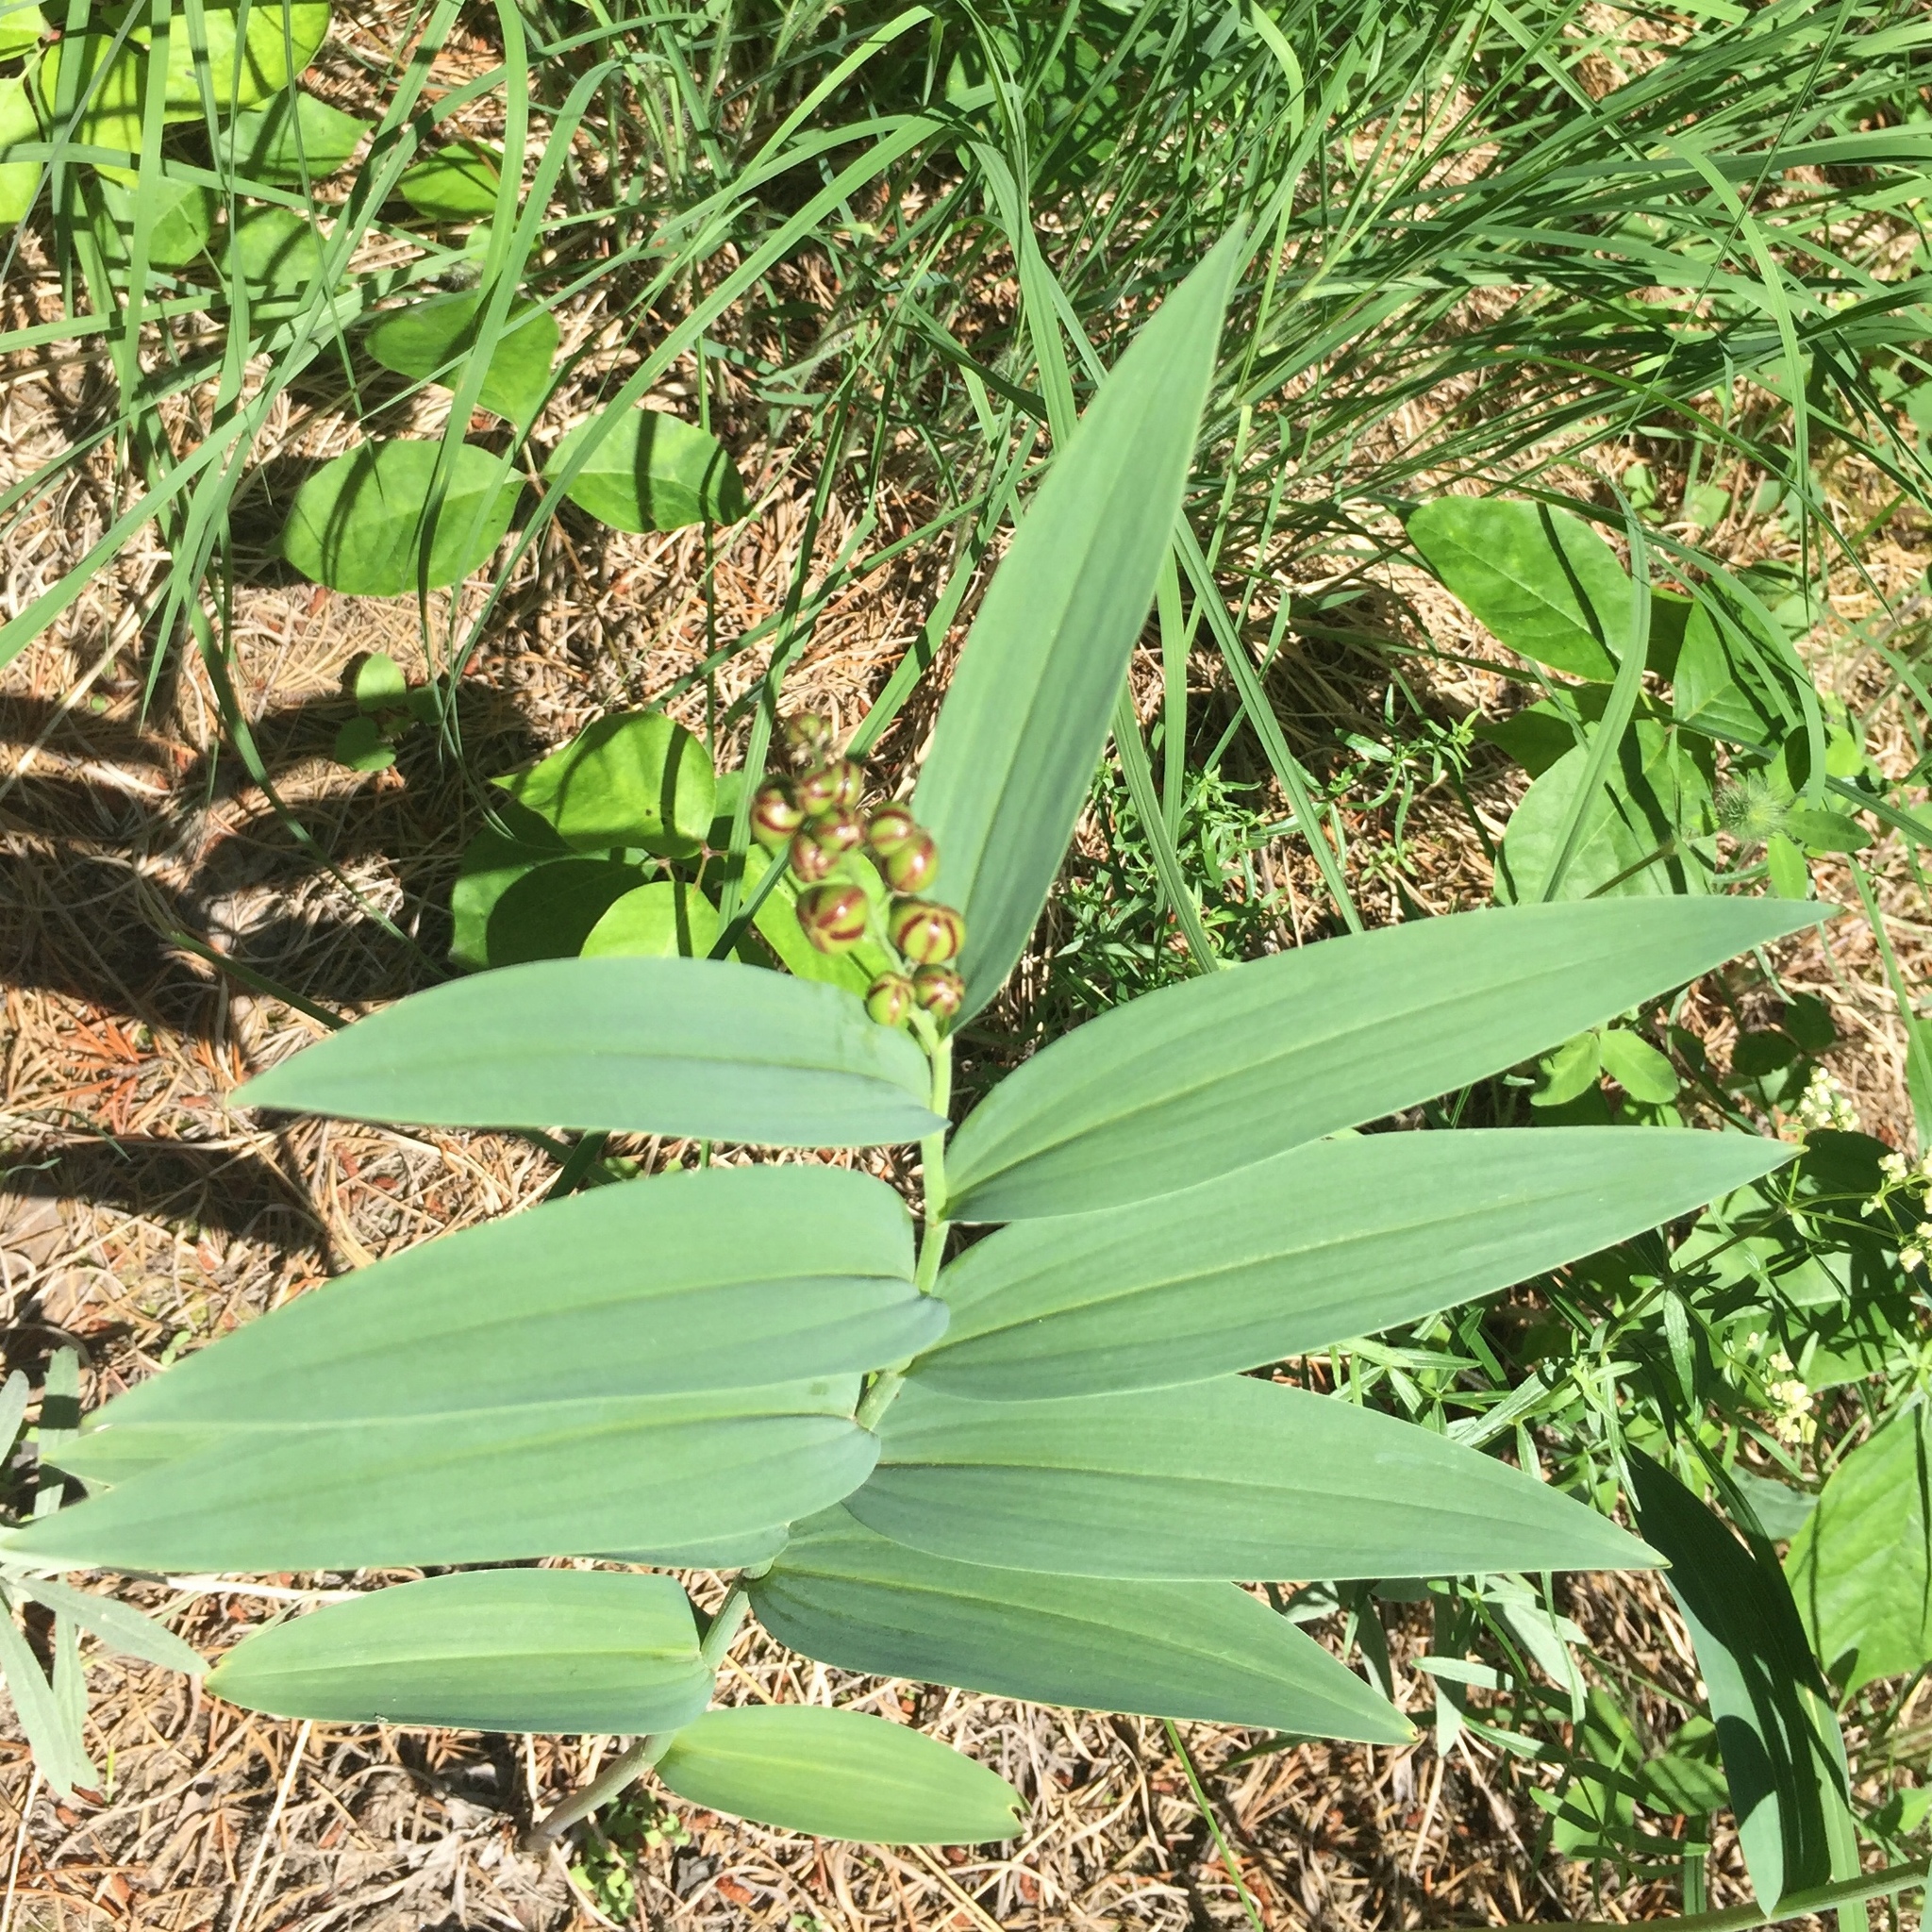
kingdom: Plantae
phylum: Tracheophyta
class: Liliopsida
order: Asparagales
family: Asparagaceae
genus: Maianthemum
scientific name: Maianthemum stellatum
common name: Little false solomon's seal
